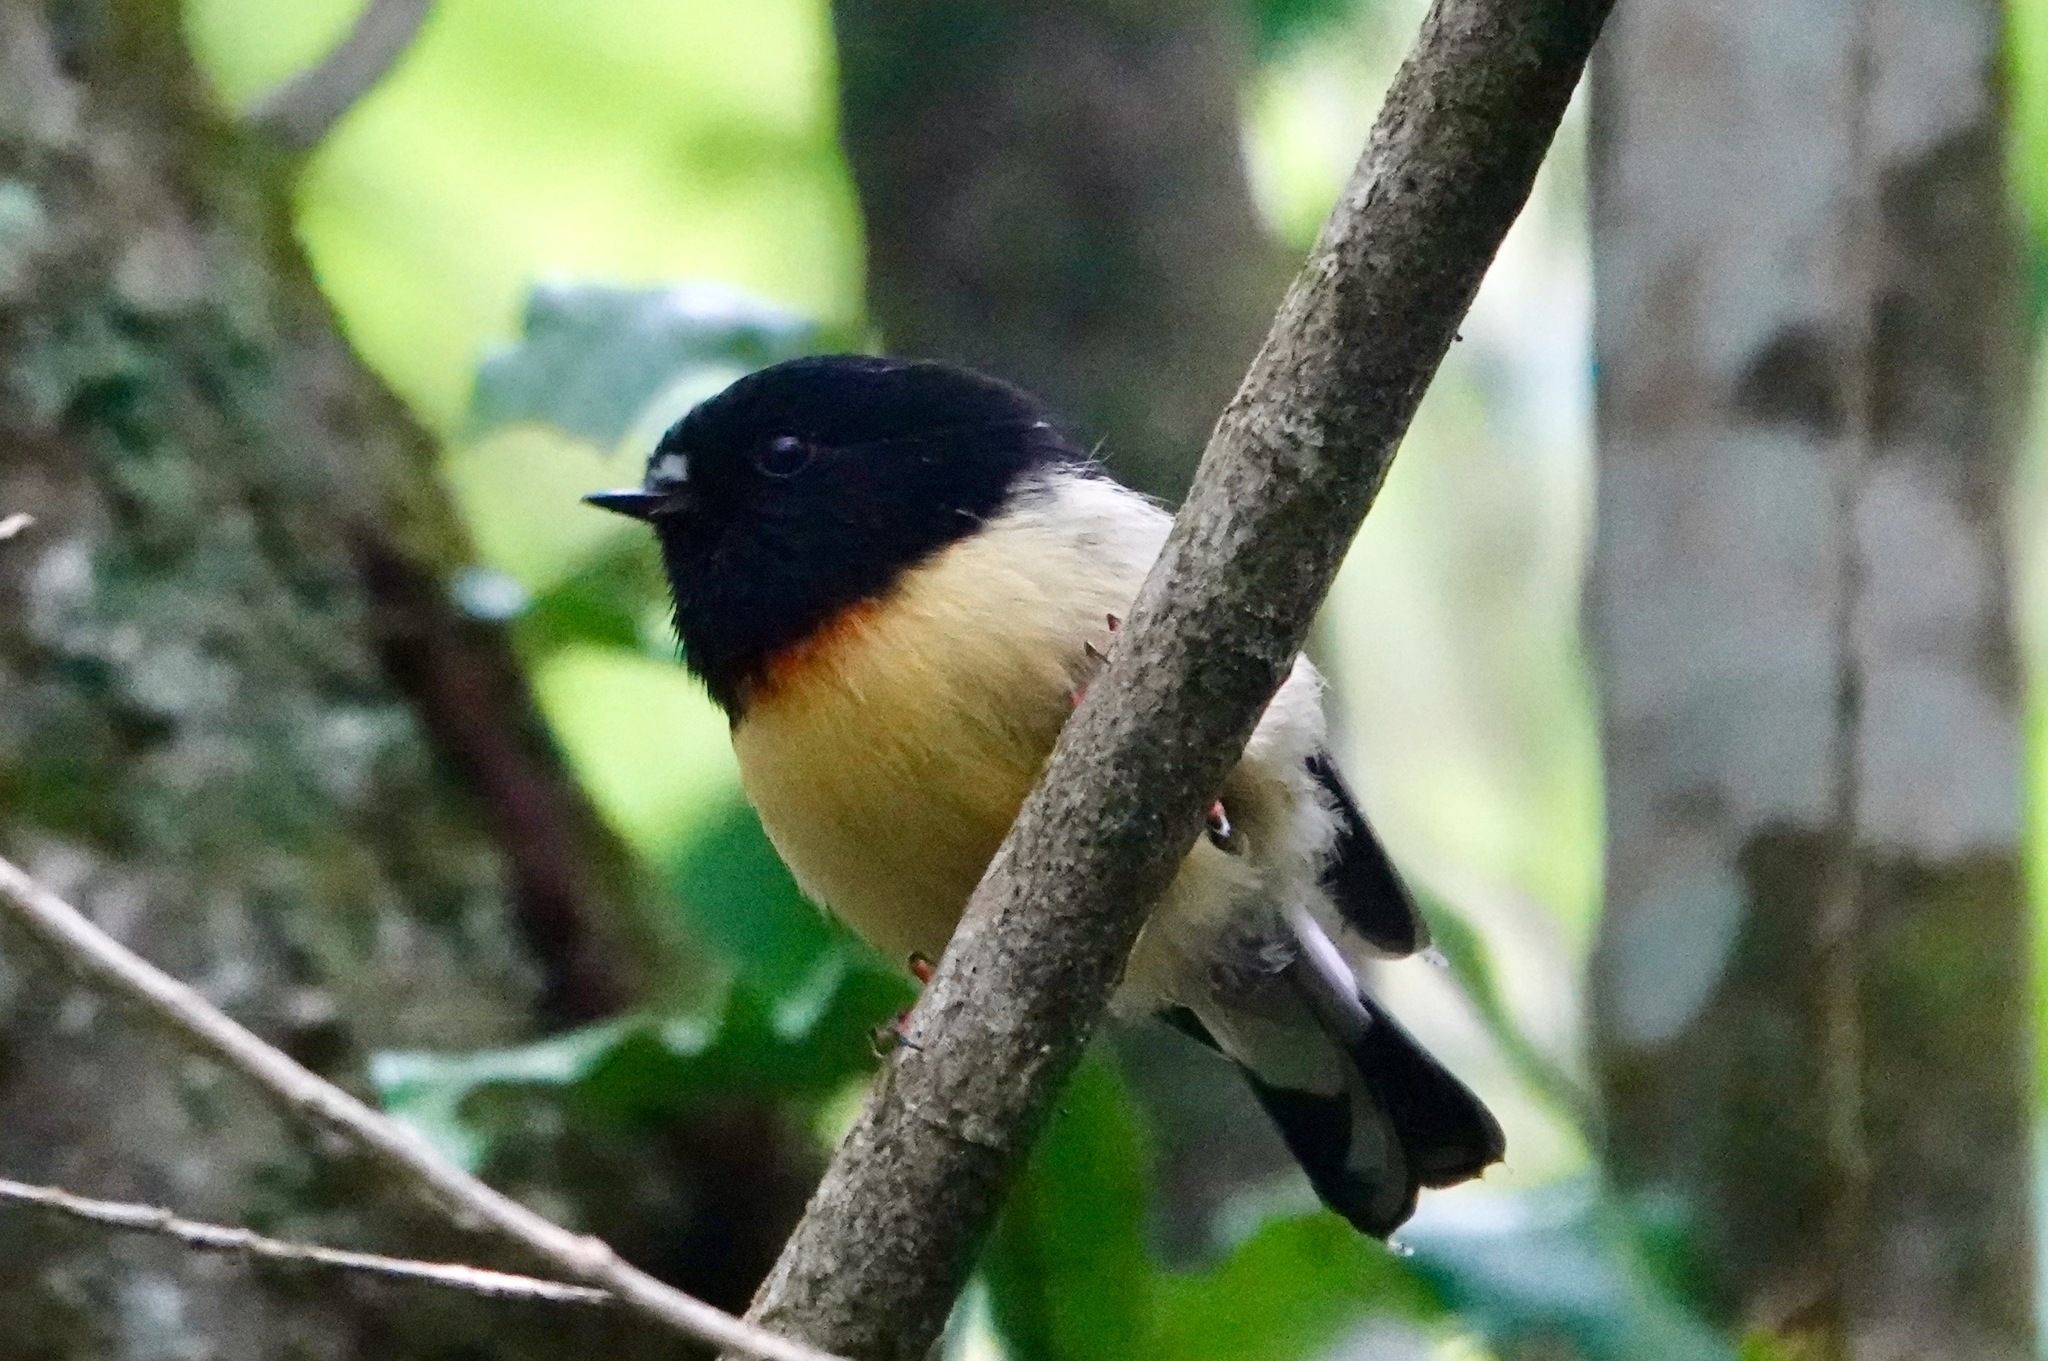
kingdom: Animalia
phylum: Chordata
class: Aves
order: Passeriformes
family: Petroicidae
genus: Petroica
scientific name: Petroica macrocephala
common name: Tomtit
